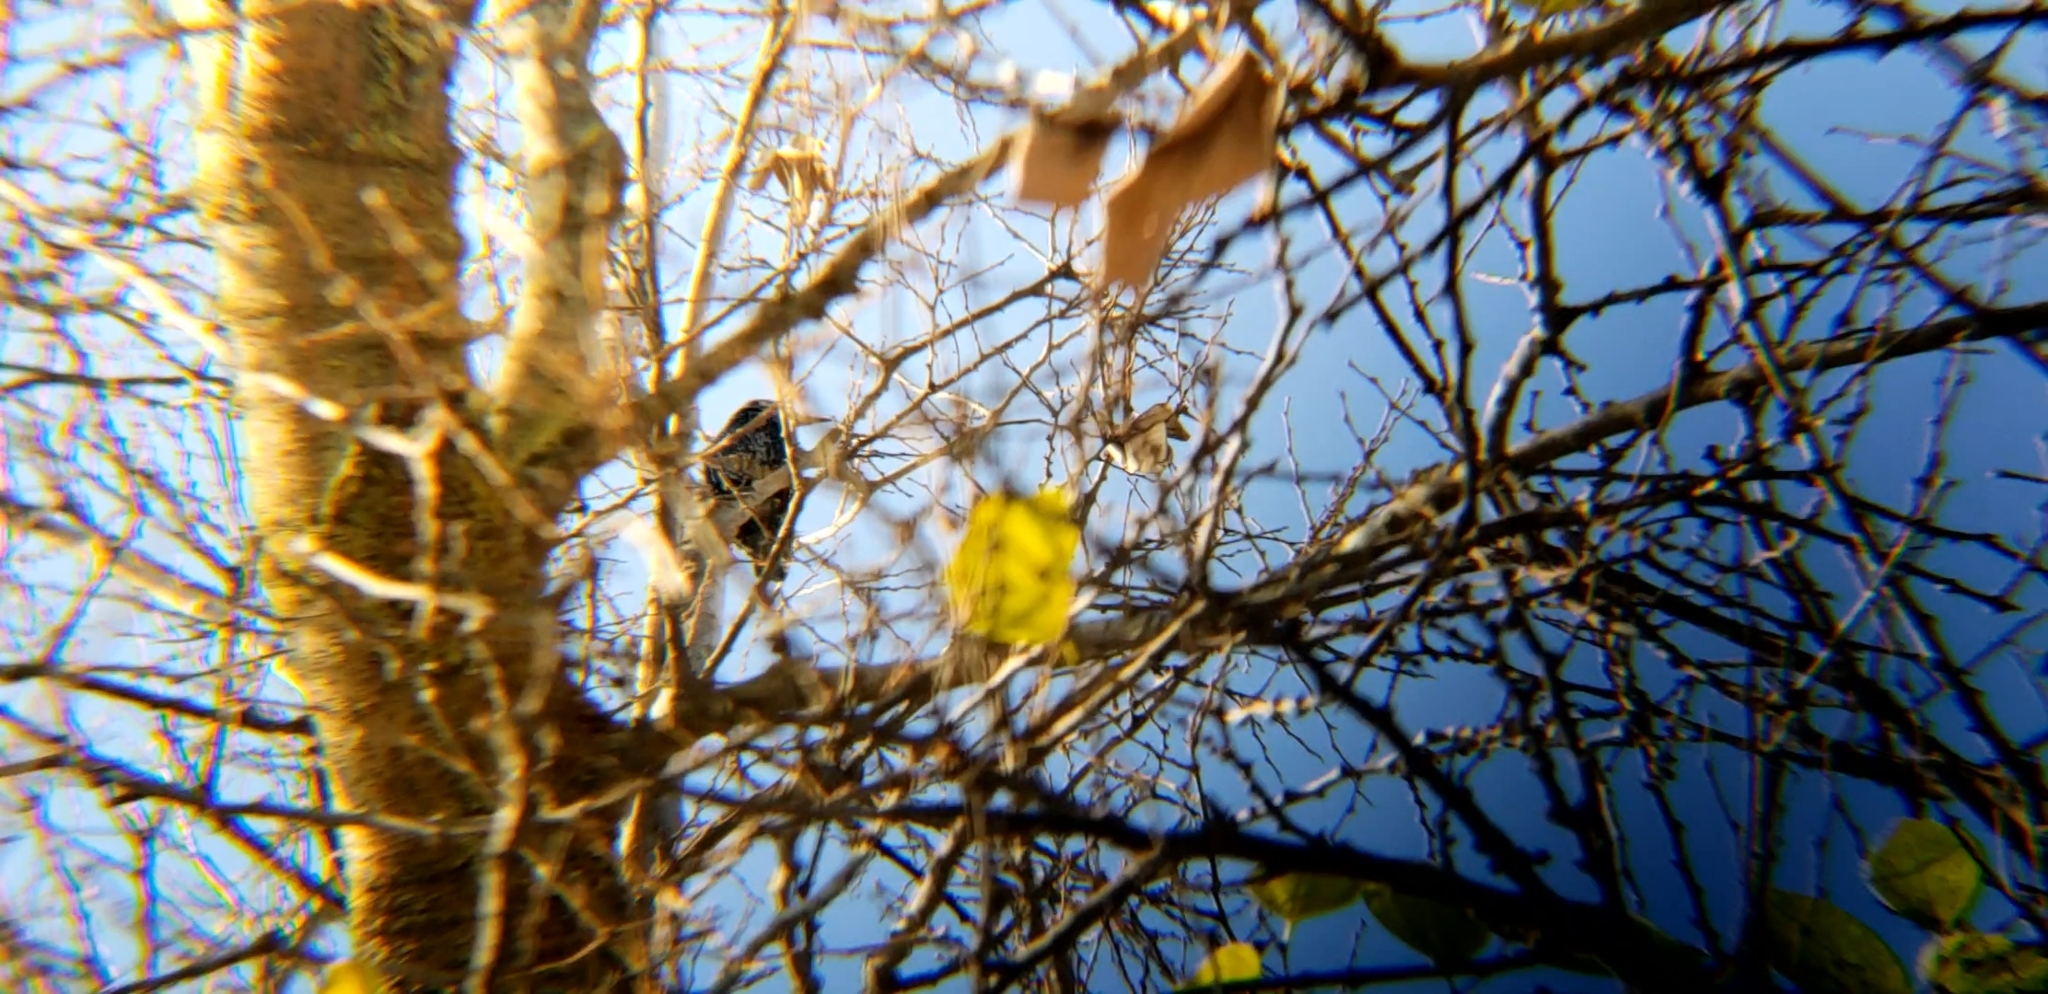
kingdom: Animalia
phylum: Chordata
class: Aves
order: Passeriformes
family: Sturnidae
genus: Sturnus
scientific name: Sturnus vulgaris
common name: Common starling
